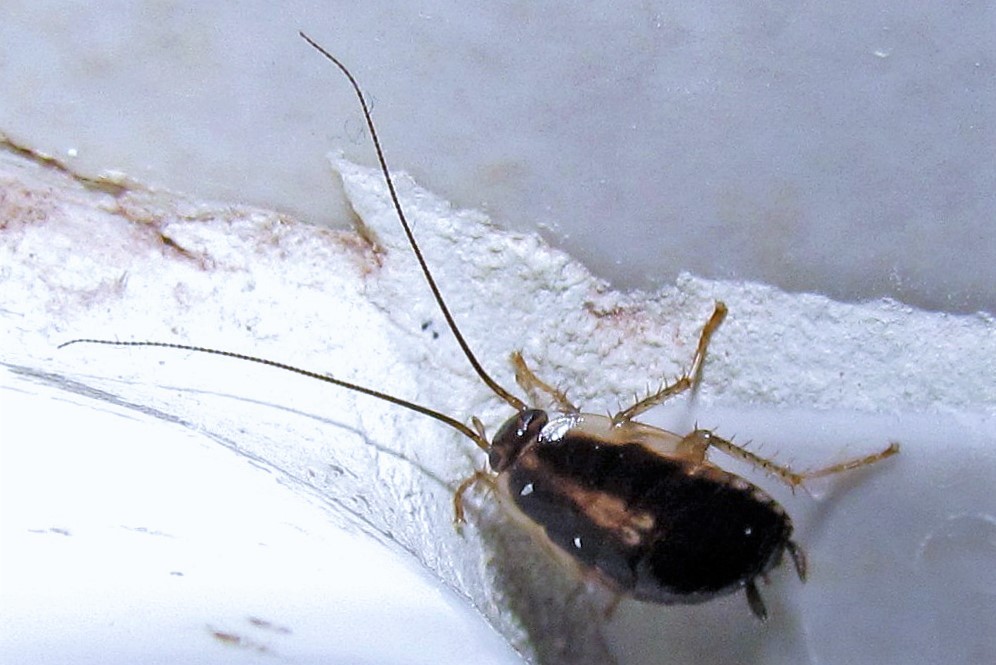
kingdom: Animalia
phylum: Arthropoda
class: Insecta
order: Blattodea
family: Ectobiidae
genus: Blattella
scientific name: Blattella germanica
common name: German cockroach
